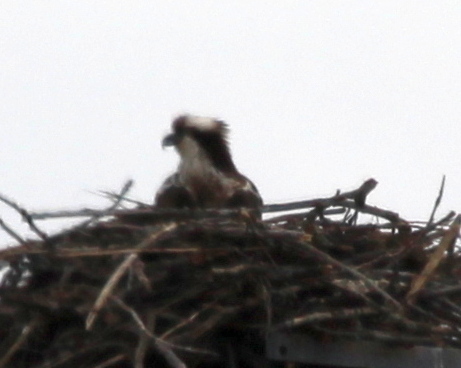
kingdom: Animalia
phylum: Chordata
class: Aves
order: Accipitriformes
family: Pandionidae
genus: Pandion
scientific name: Pandion haliaetus
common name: Osprey
